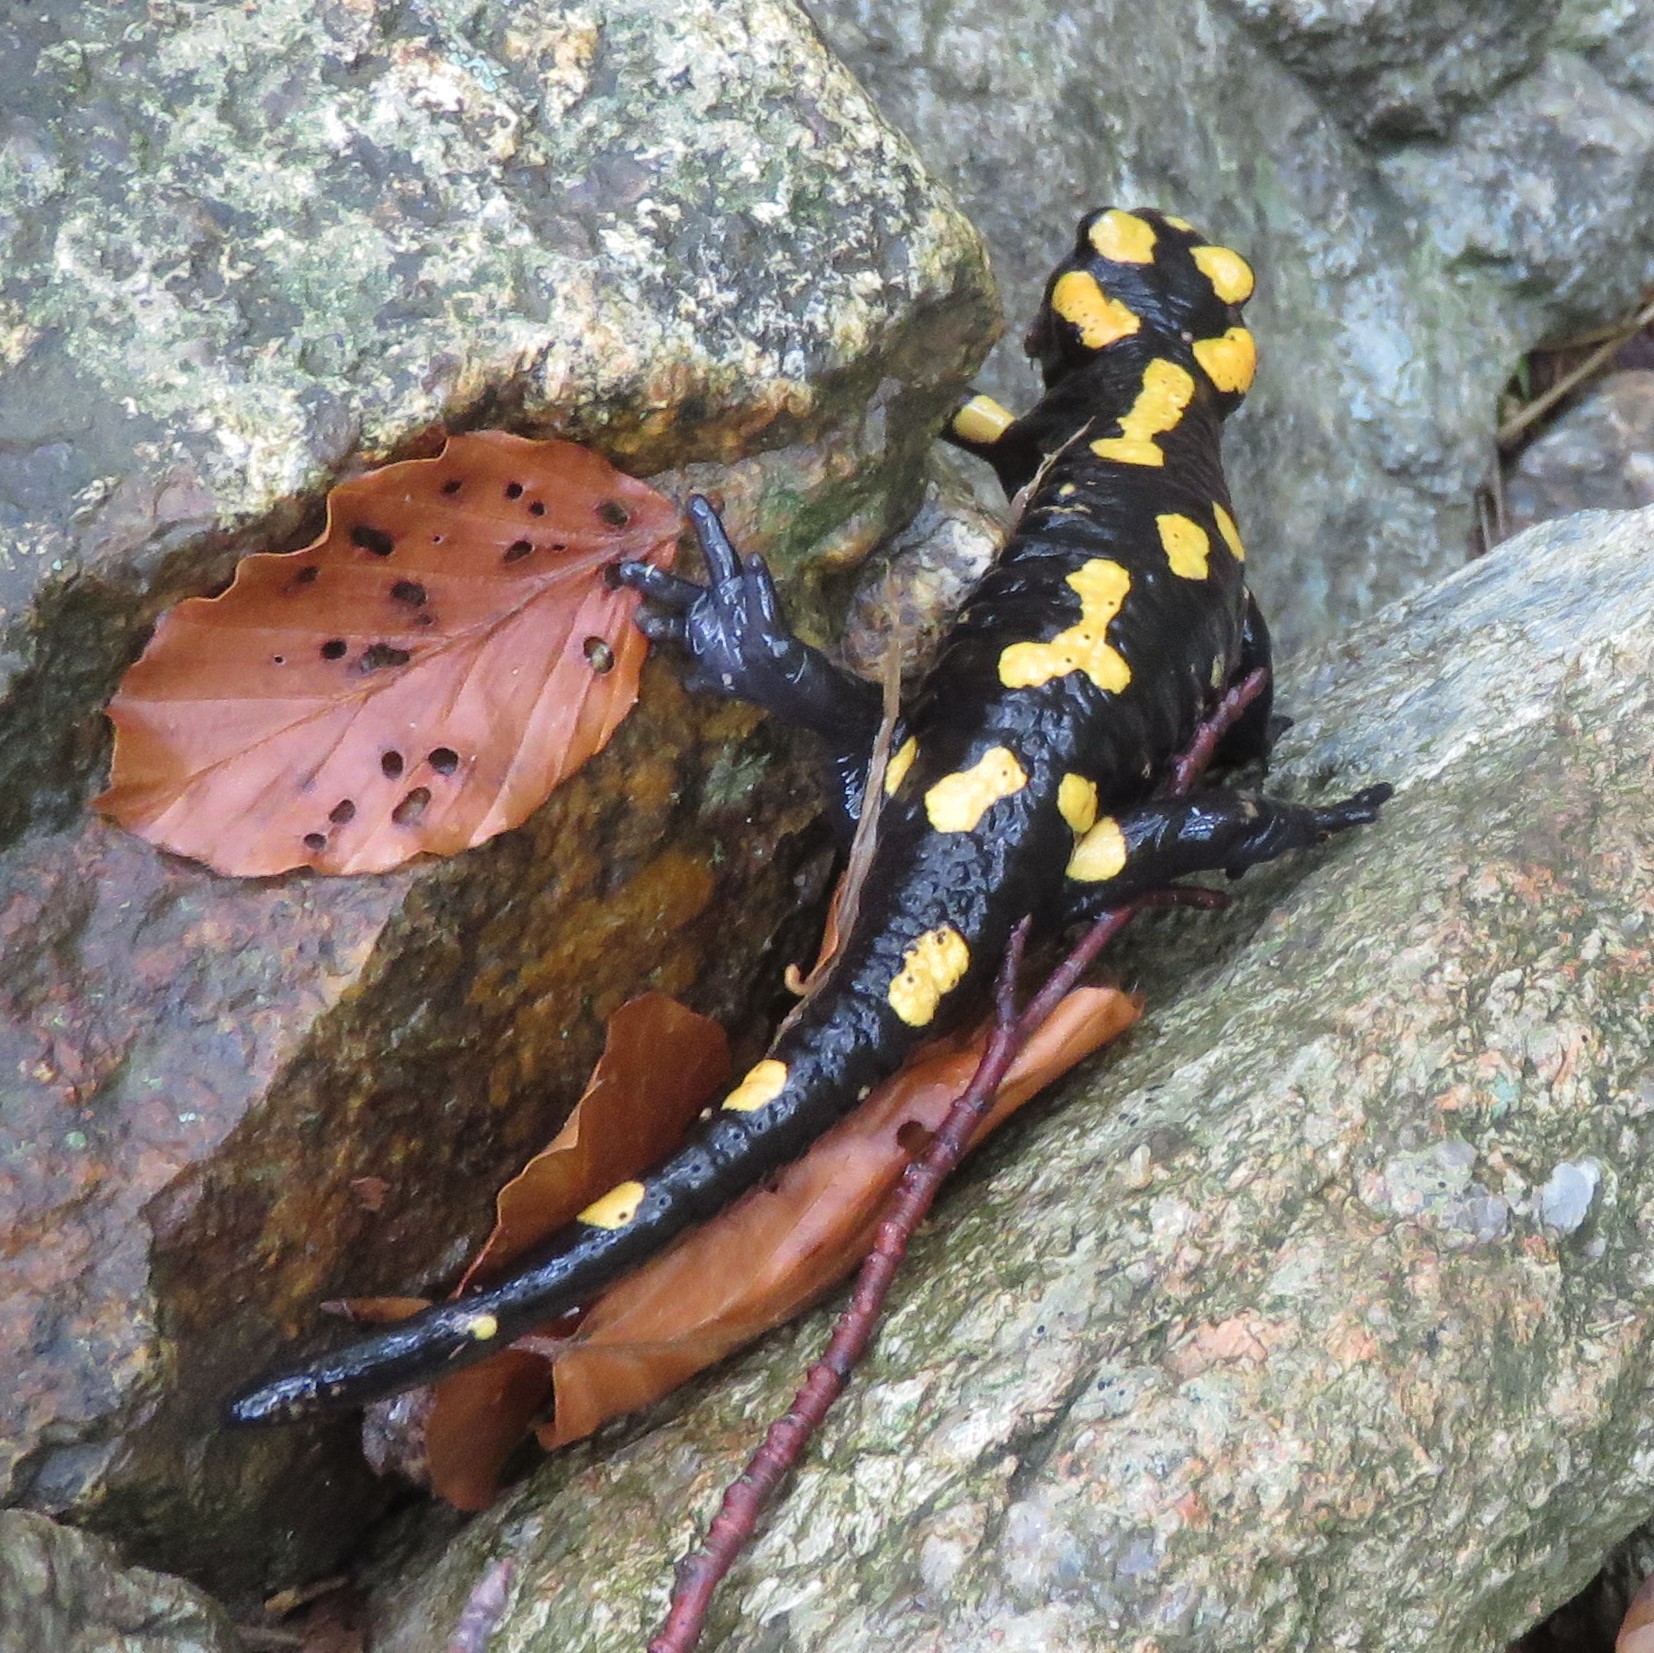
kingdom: Animalia
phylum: Chordata
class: Amphibia
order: Caudata
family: Salamandridae
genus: Salamandra
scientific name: Salamandra corsica
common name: Corsican fire salamander
